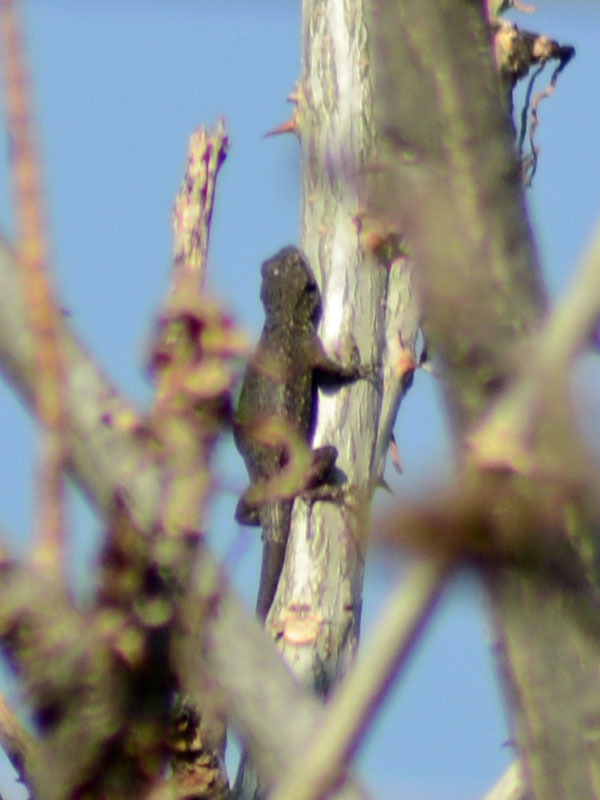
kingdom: Animalia
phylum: Chordata
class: Squamata
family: Phrynosomatidae
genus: Sceloporus
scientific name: Sceloporus grammicus
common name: Mesquite lizard
